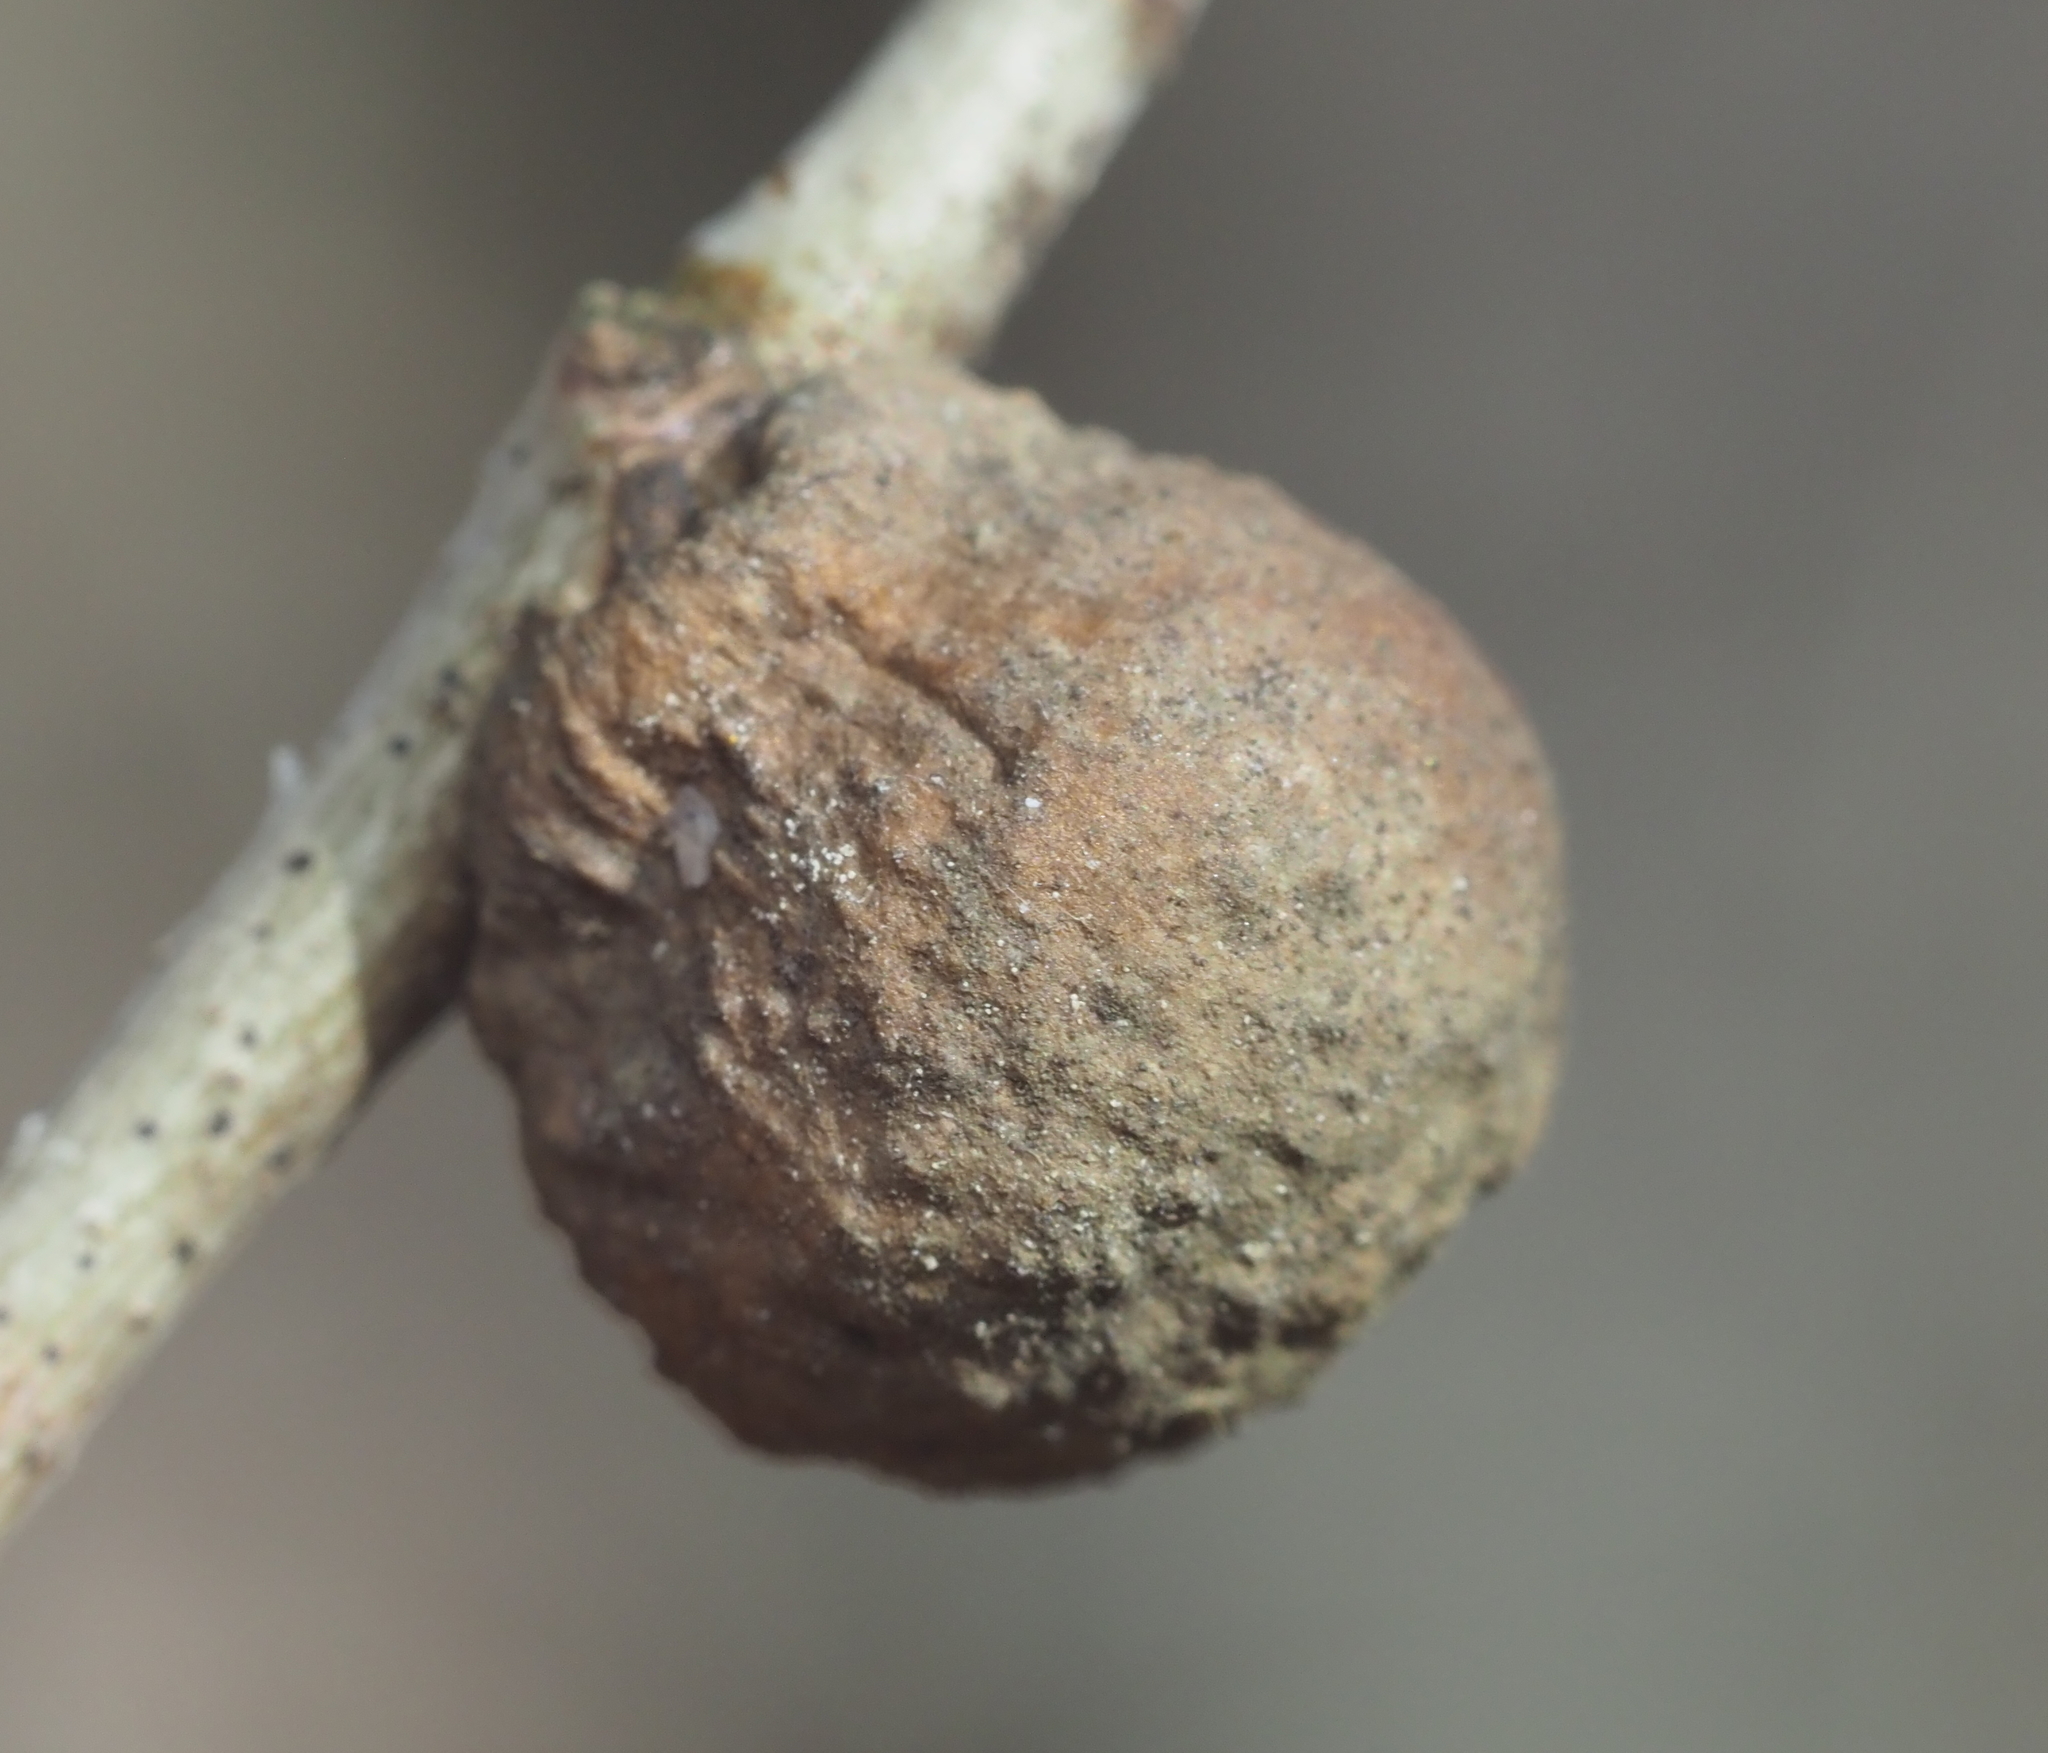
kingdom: Animalia
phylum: Arthropoda
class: Insecta
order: Hymenoptera
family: Cynipidae
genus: Disholcaspis
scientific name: Disholcaspis quercusglobulus
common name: Round bullet gall wasp
